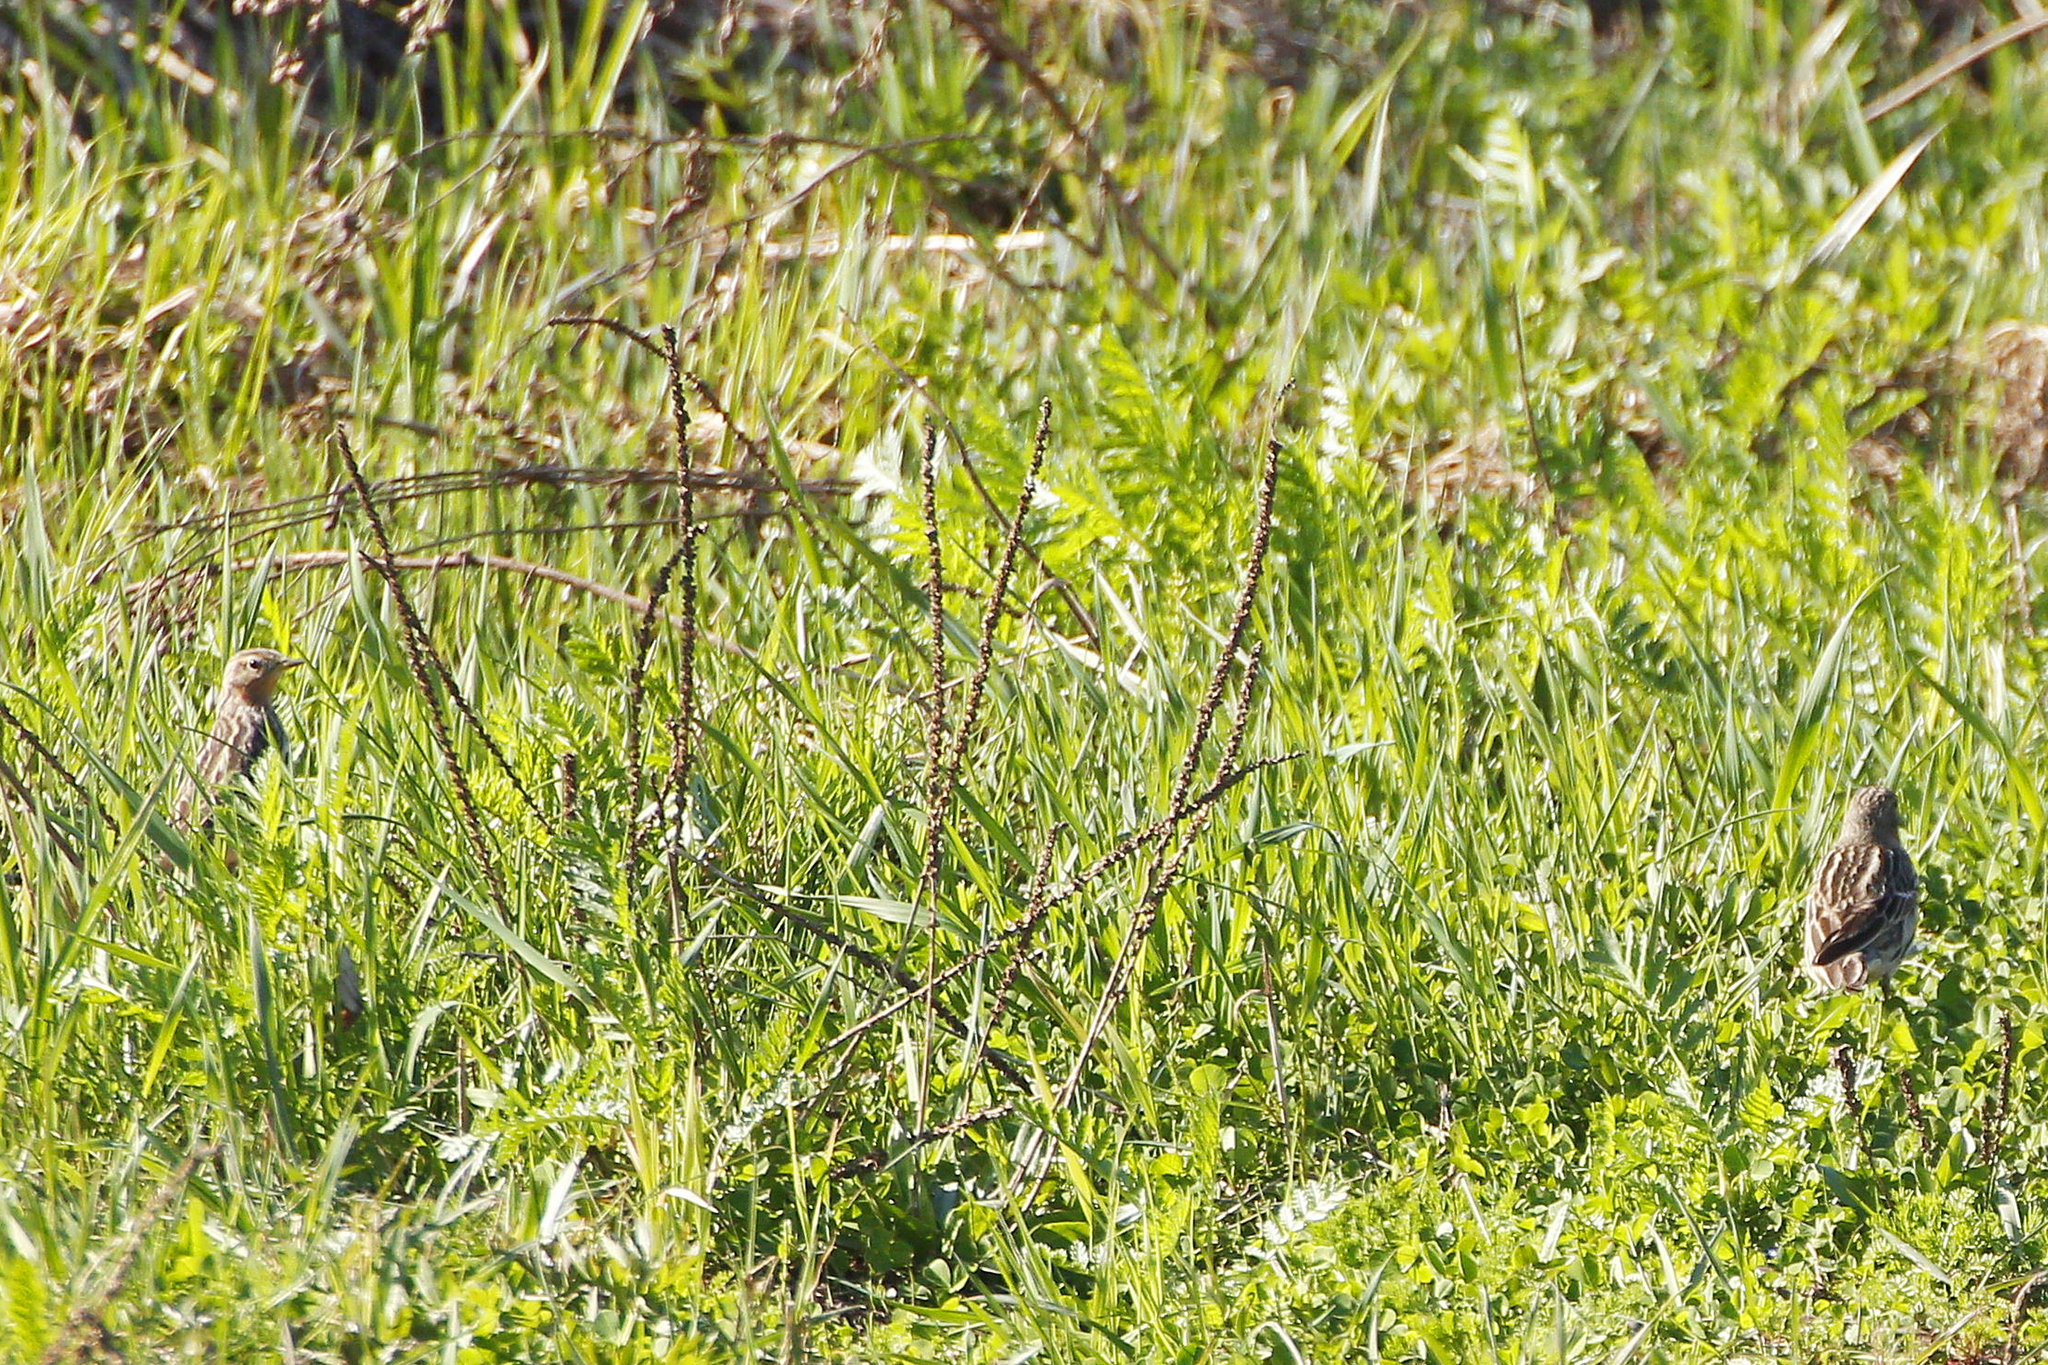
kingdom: Animalia
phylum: Chordata
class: Aves
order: Passeriformes
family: Motacillidae
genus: Anthus
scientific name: Anthus cervinus
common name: Red-throated pipit
